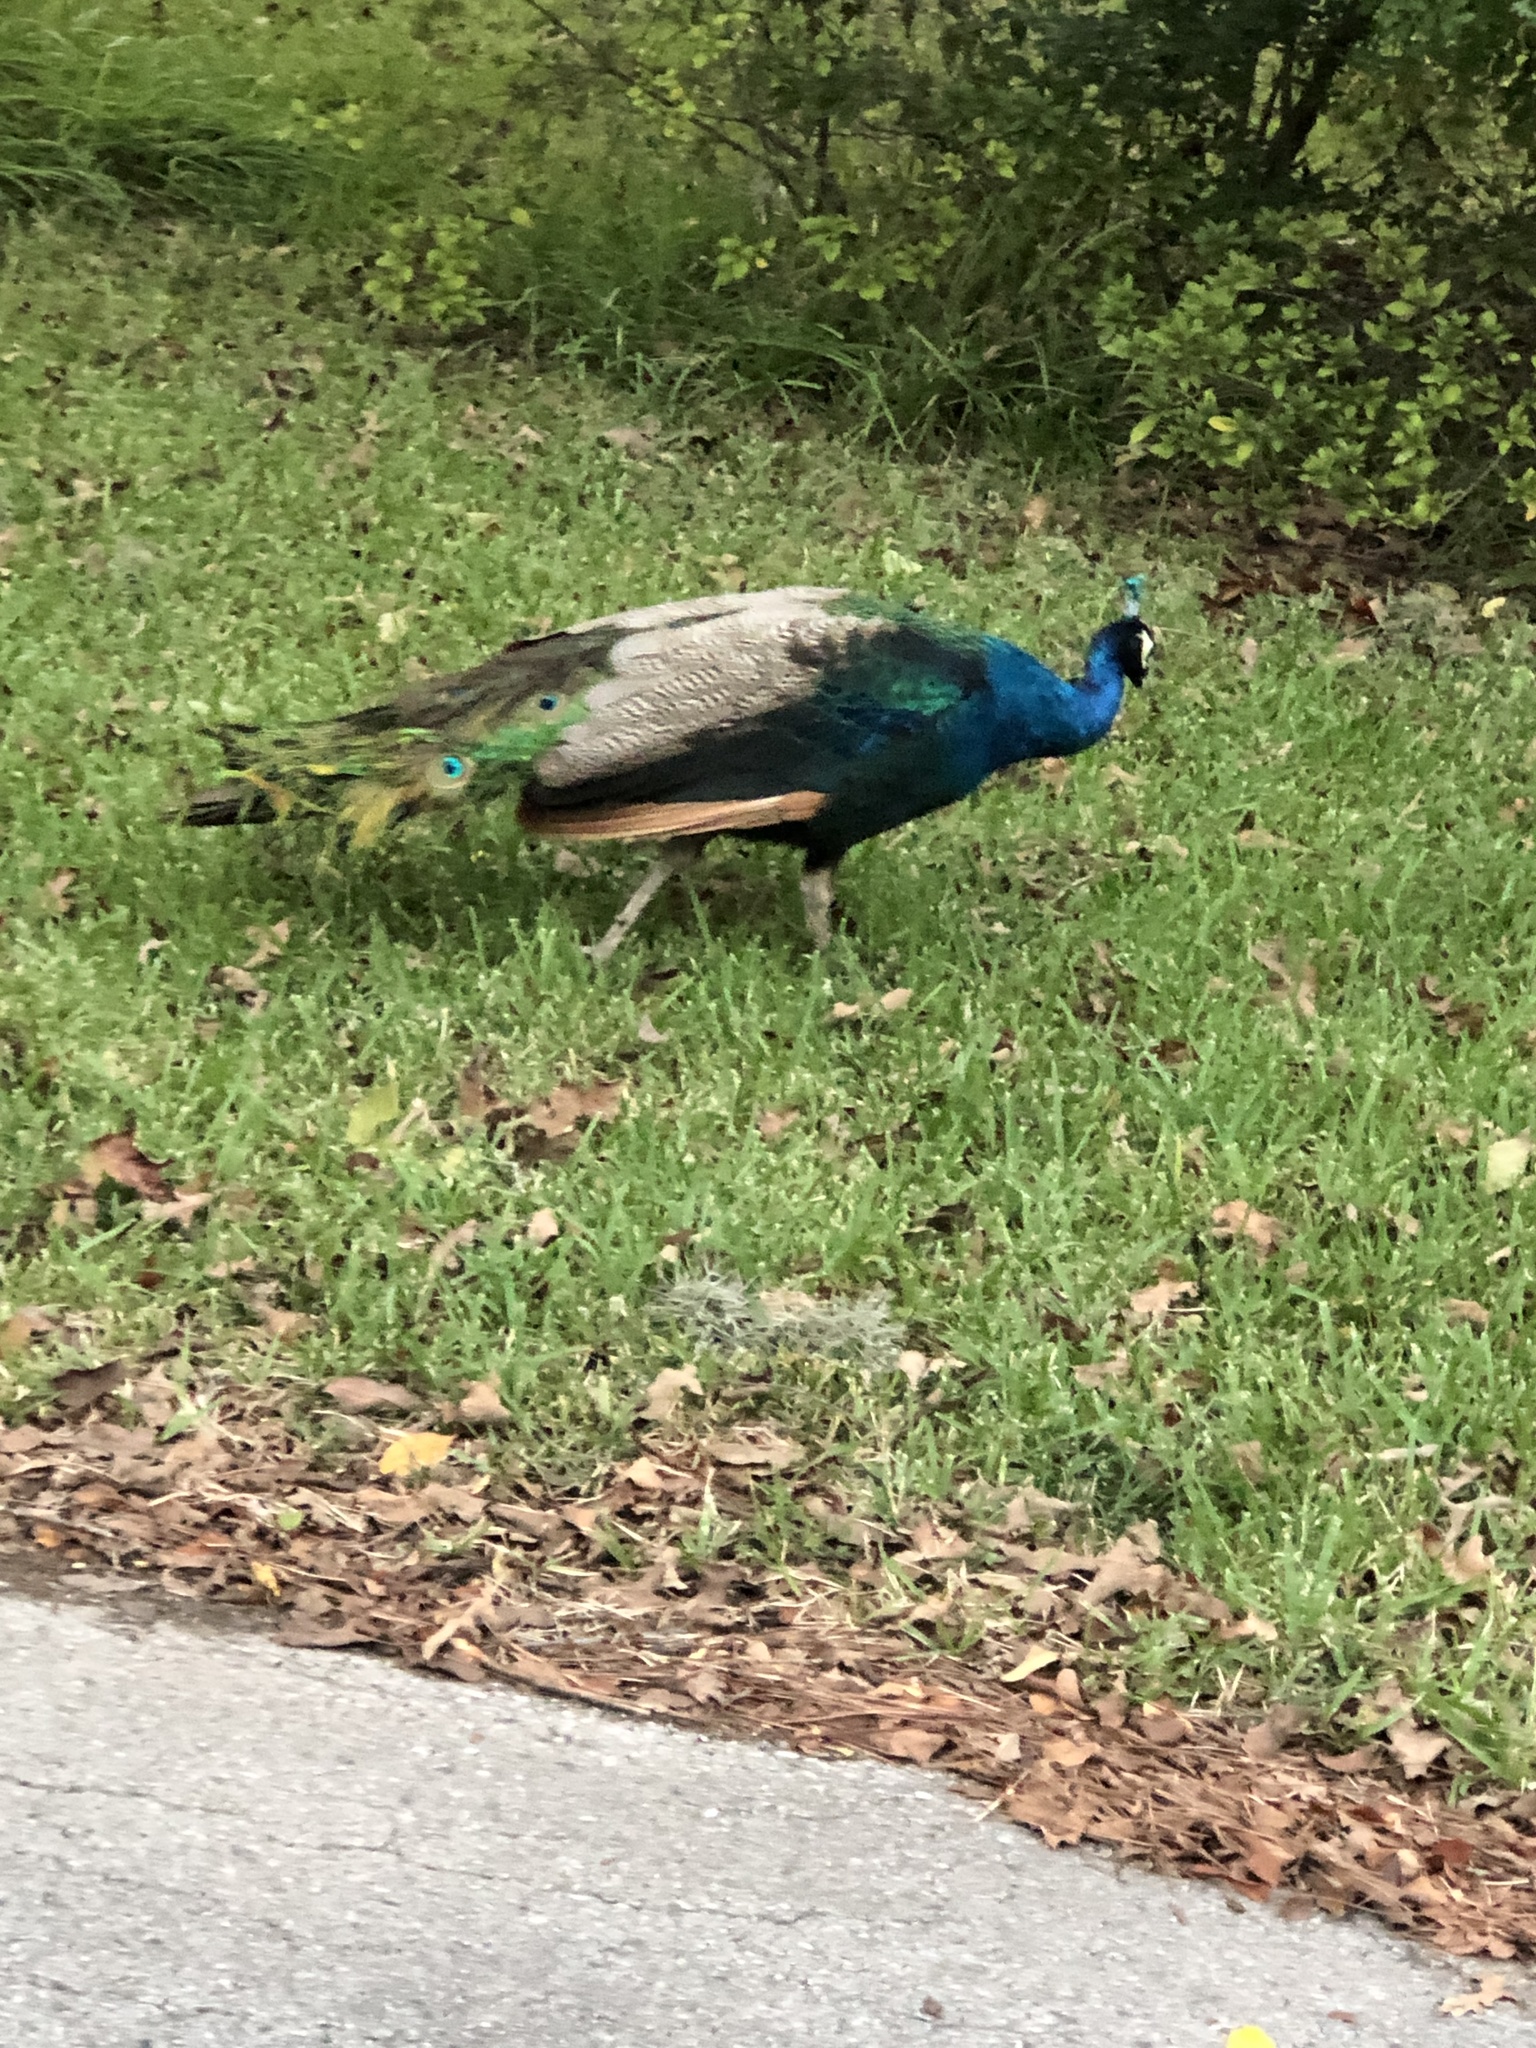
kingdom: Animalia
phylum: Chordata
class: Aves
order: Galliformes
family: Phasianidae
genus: Pavo
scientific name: Pavo cristatus
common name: Indian peafowl
